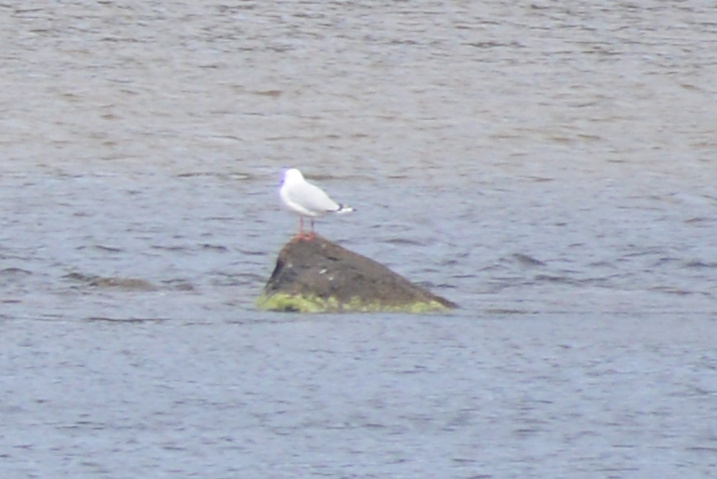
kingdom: Animalia
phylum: Chordata
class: Aves
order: Charadriiformes
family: Laridae
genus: Chroicocephalus
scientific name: Chroicocephalus novaehollandiae
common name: Silver gull
